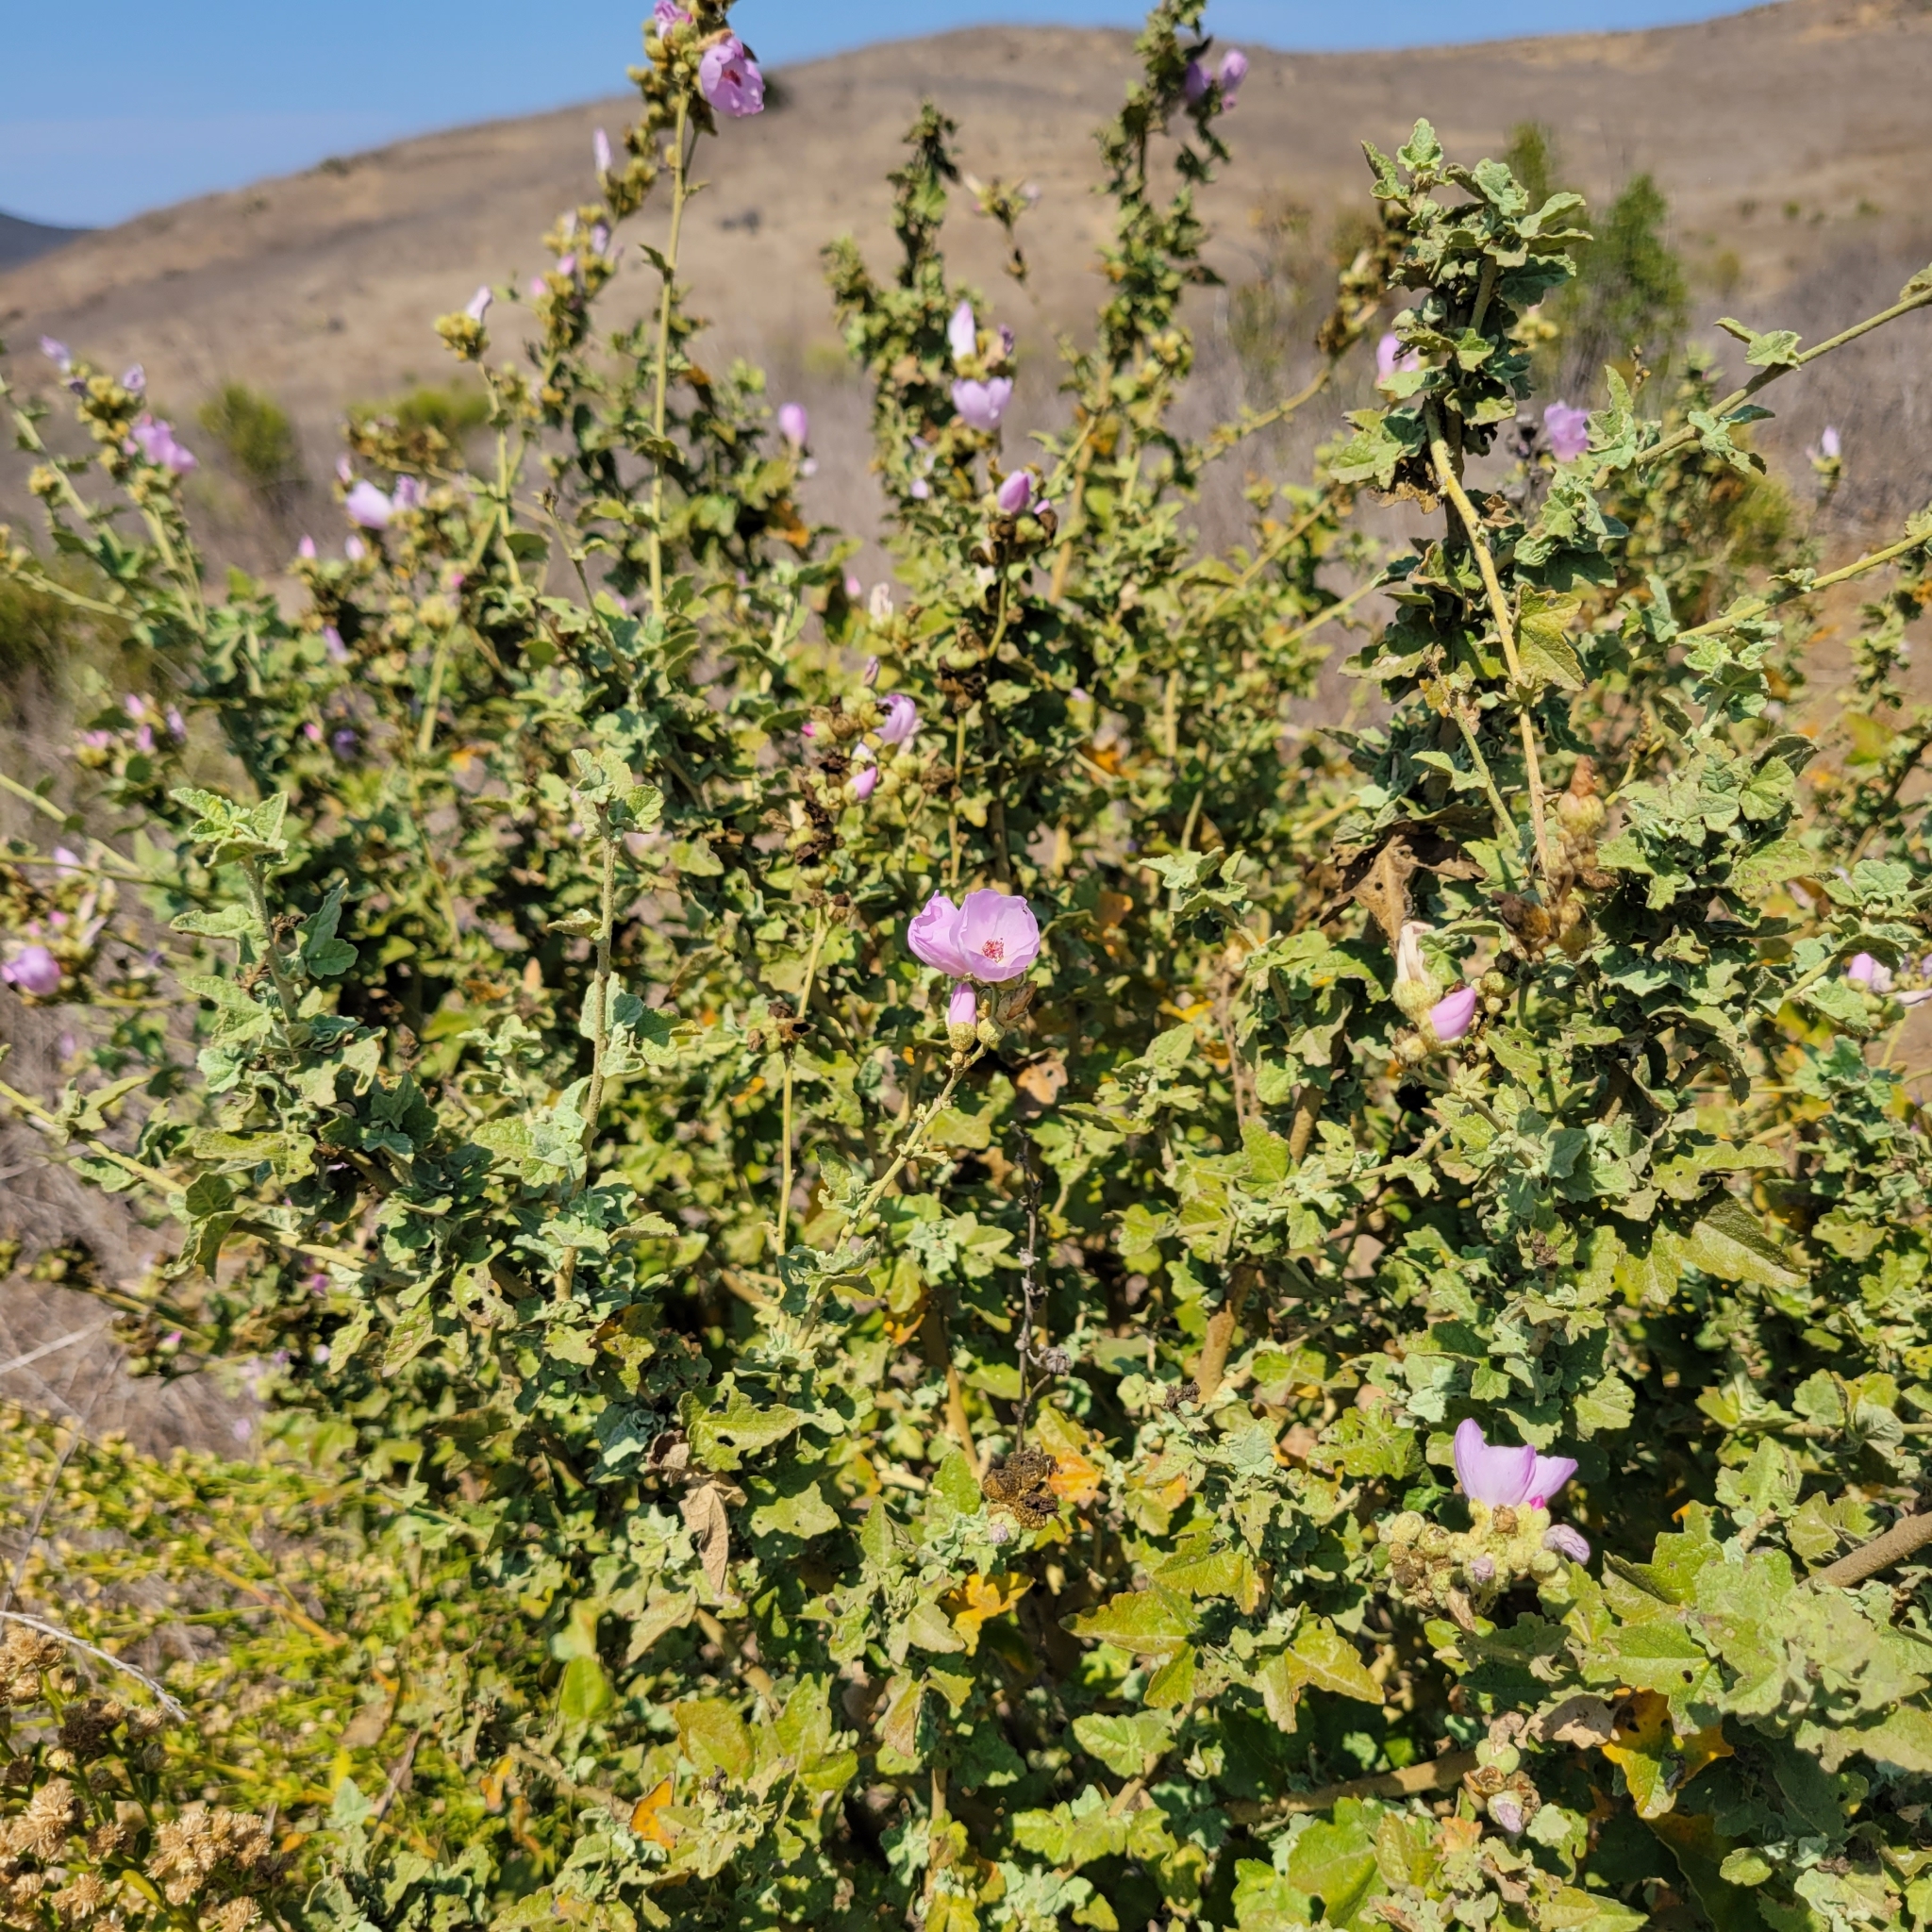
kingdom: Plantae
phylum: Tracheophyta
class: Magnoliopsida
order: Malvales
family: Malvaceae
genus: Malacothamnus
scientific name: Malacothamnus fasciculatus
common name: Sant cruz island bush-mallow
